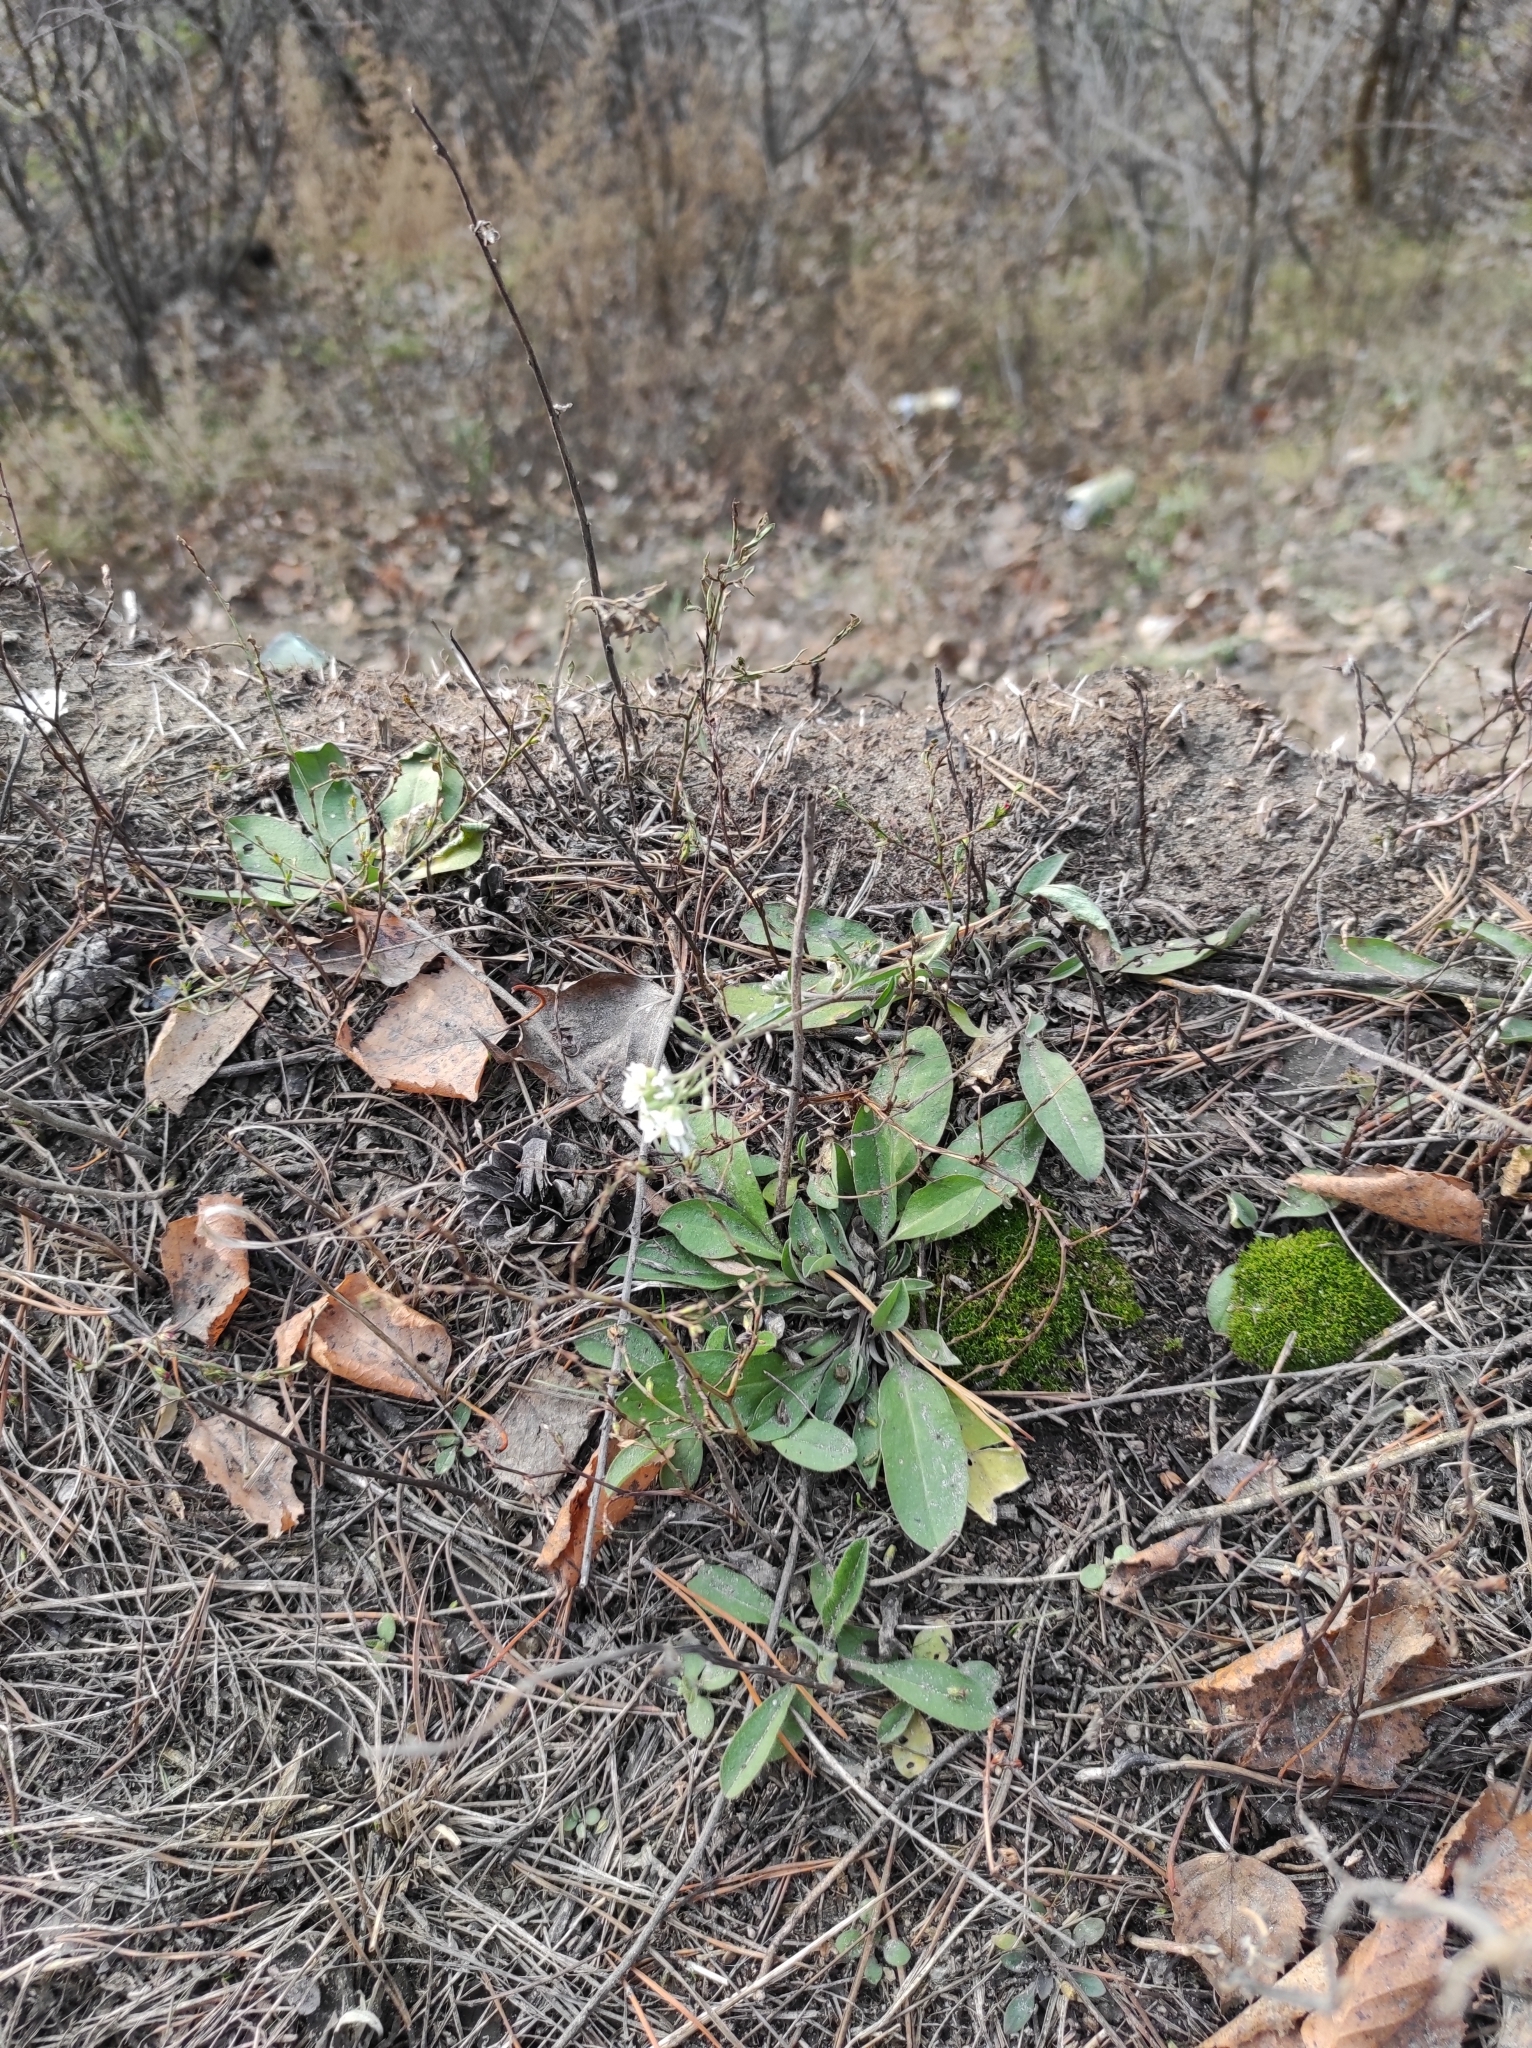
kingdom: Plantae
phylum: Tracheophyta
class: Magnoliopsida
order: Brassicales
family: Brassicaceae
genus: Berteroa
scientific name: Berteroa incana
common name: Hoary alison
